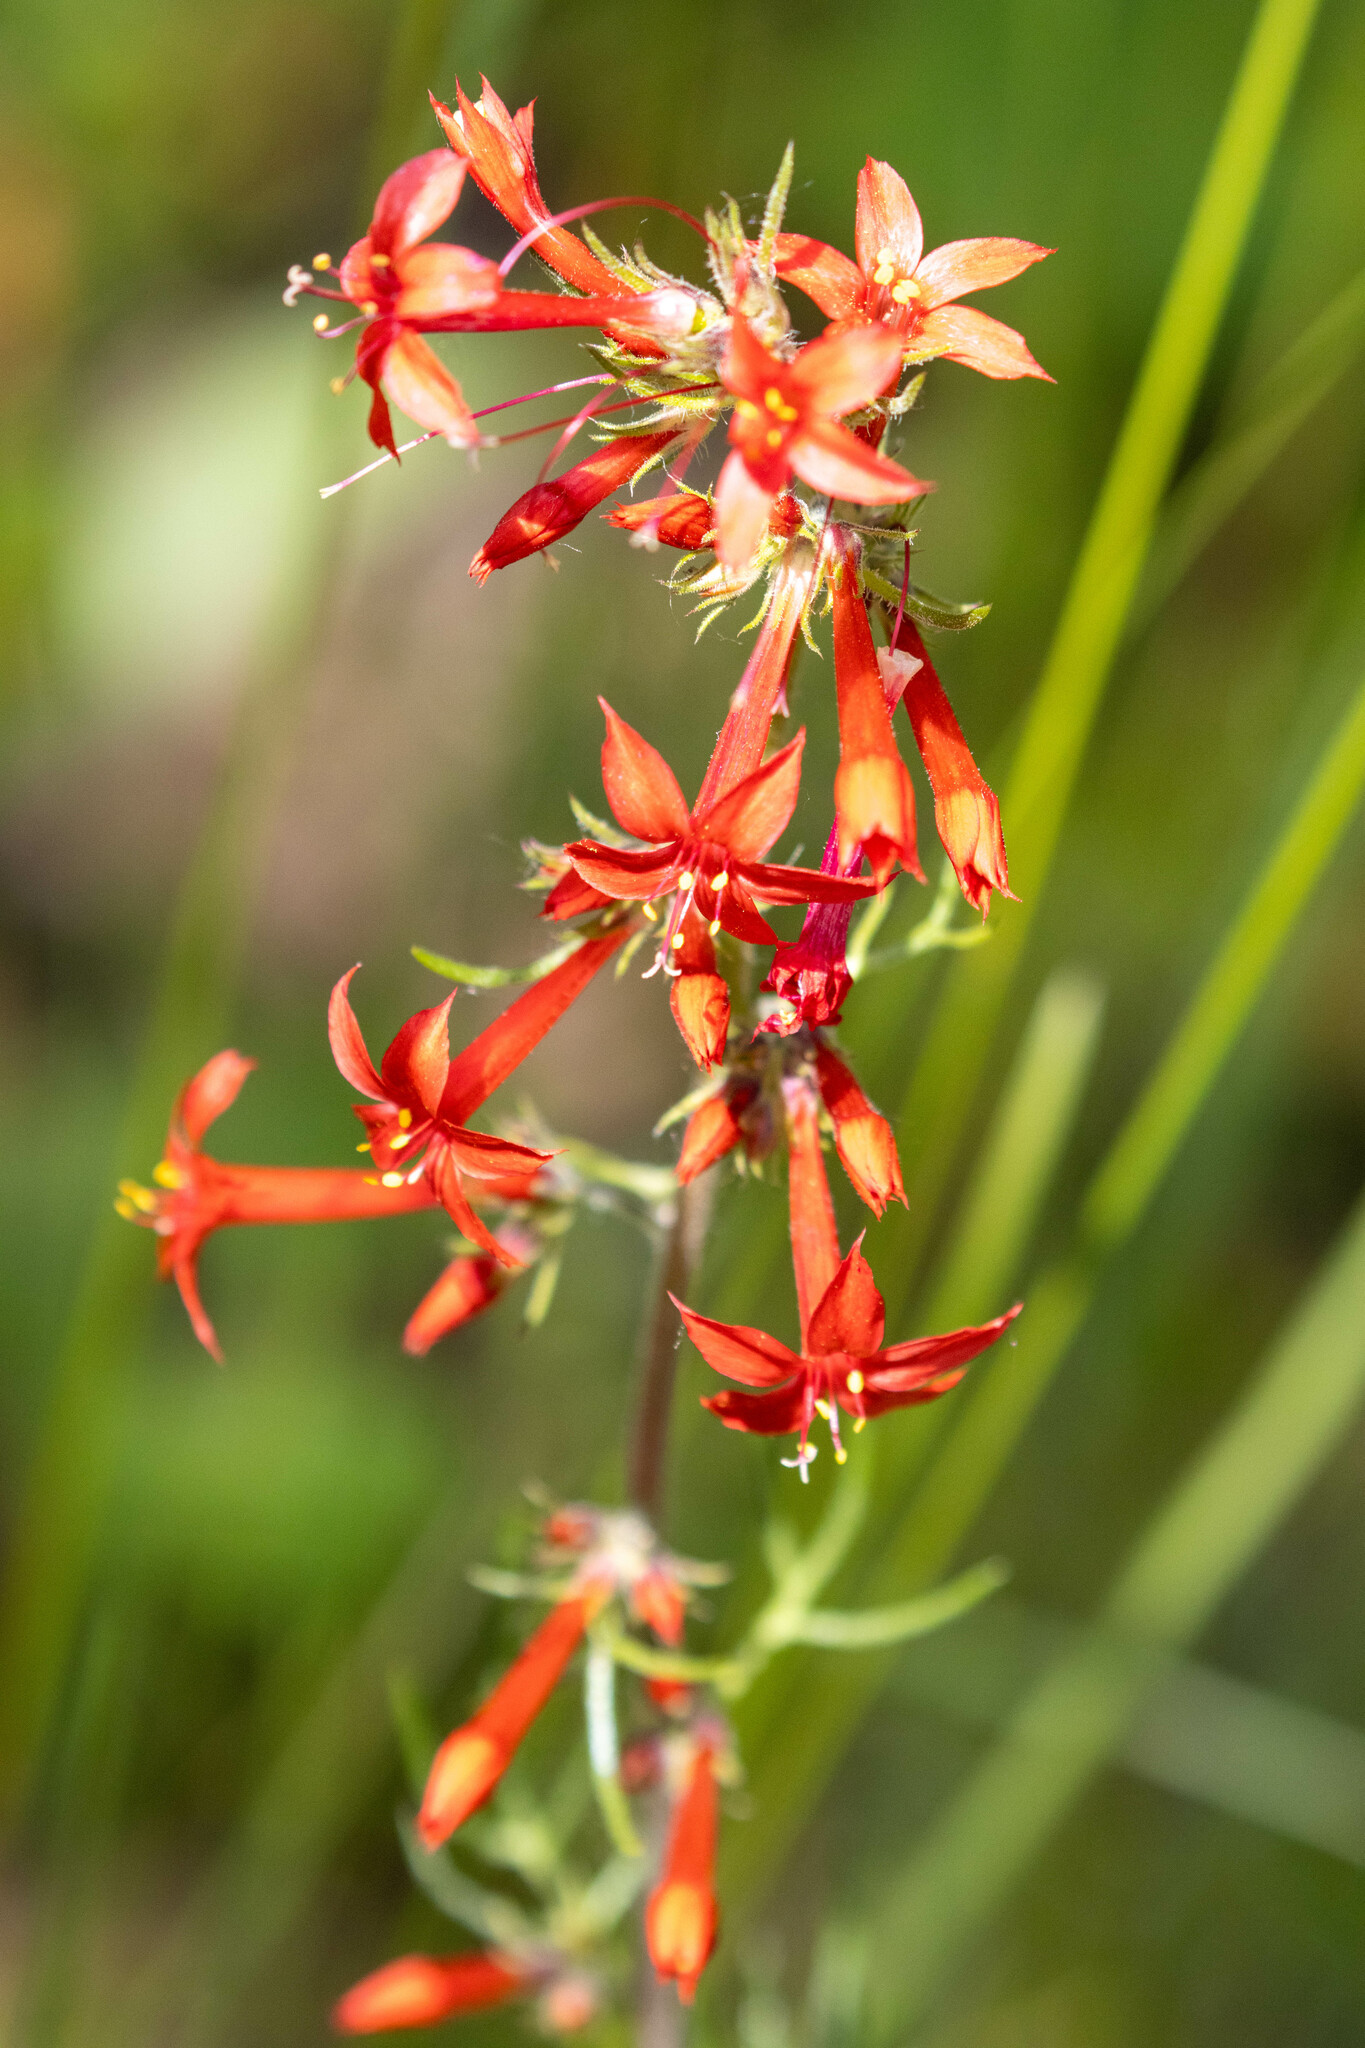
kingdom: Plantae
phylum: Tracheophyta
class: Magnoliopsida
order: Ericales
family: Polemoniaceae
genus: Ipomopsis
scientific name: Ipomopsis aggregata
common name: Scarlet gilia
